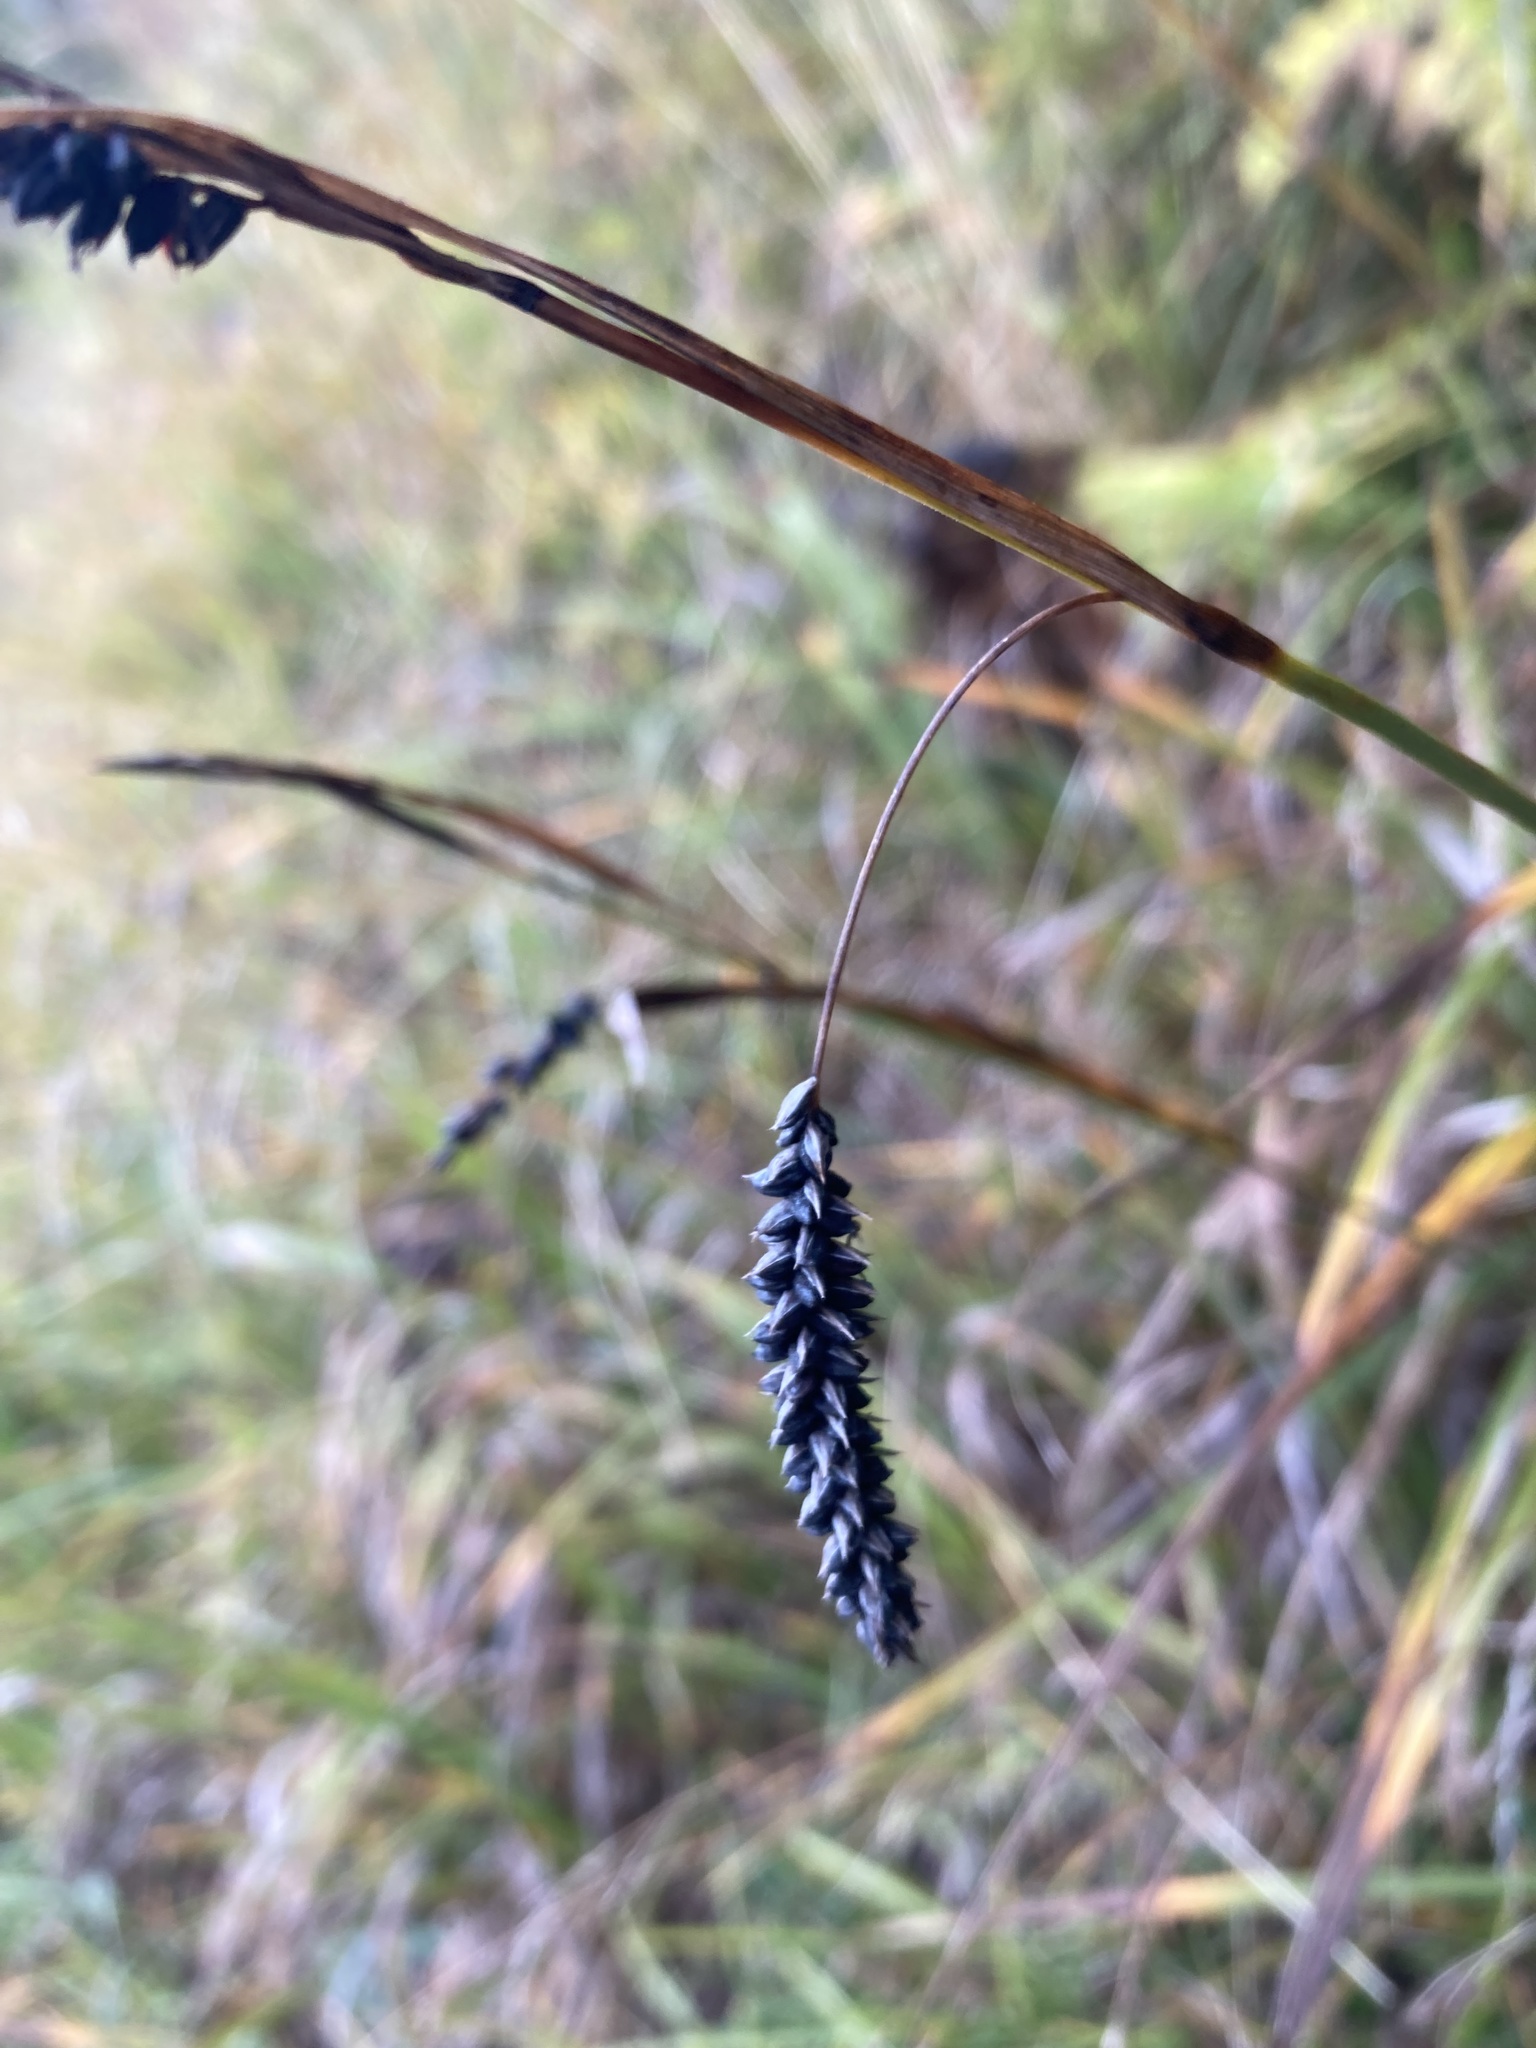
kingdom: Plantae
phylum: Tracheophyta
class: Liliopsida
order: Poales
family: Cyperaceae
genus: Carex
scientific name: Carex flacca
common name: Glaucous sedge
